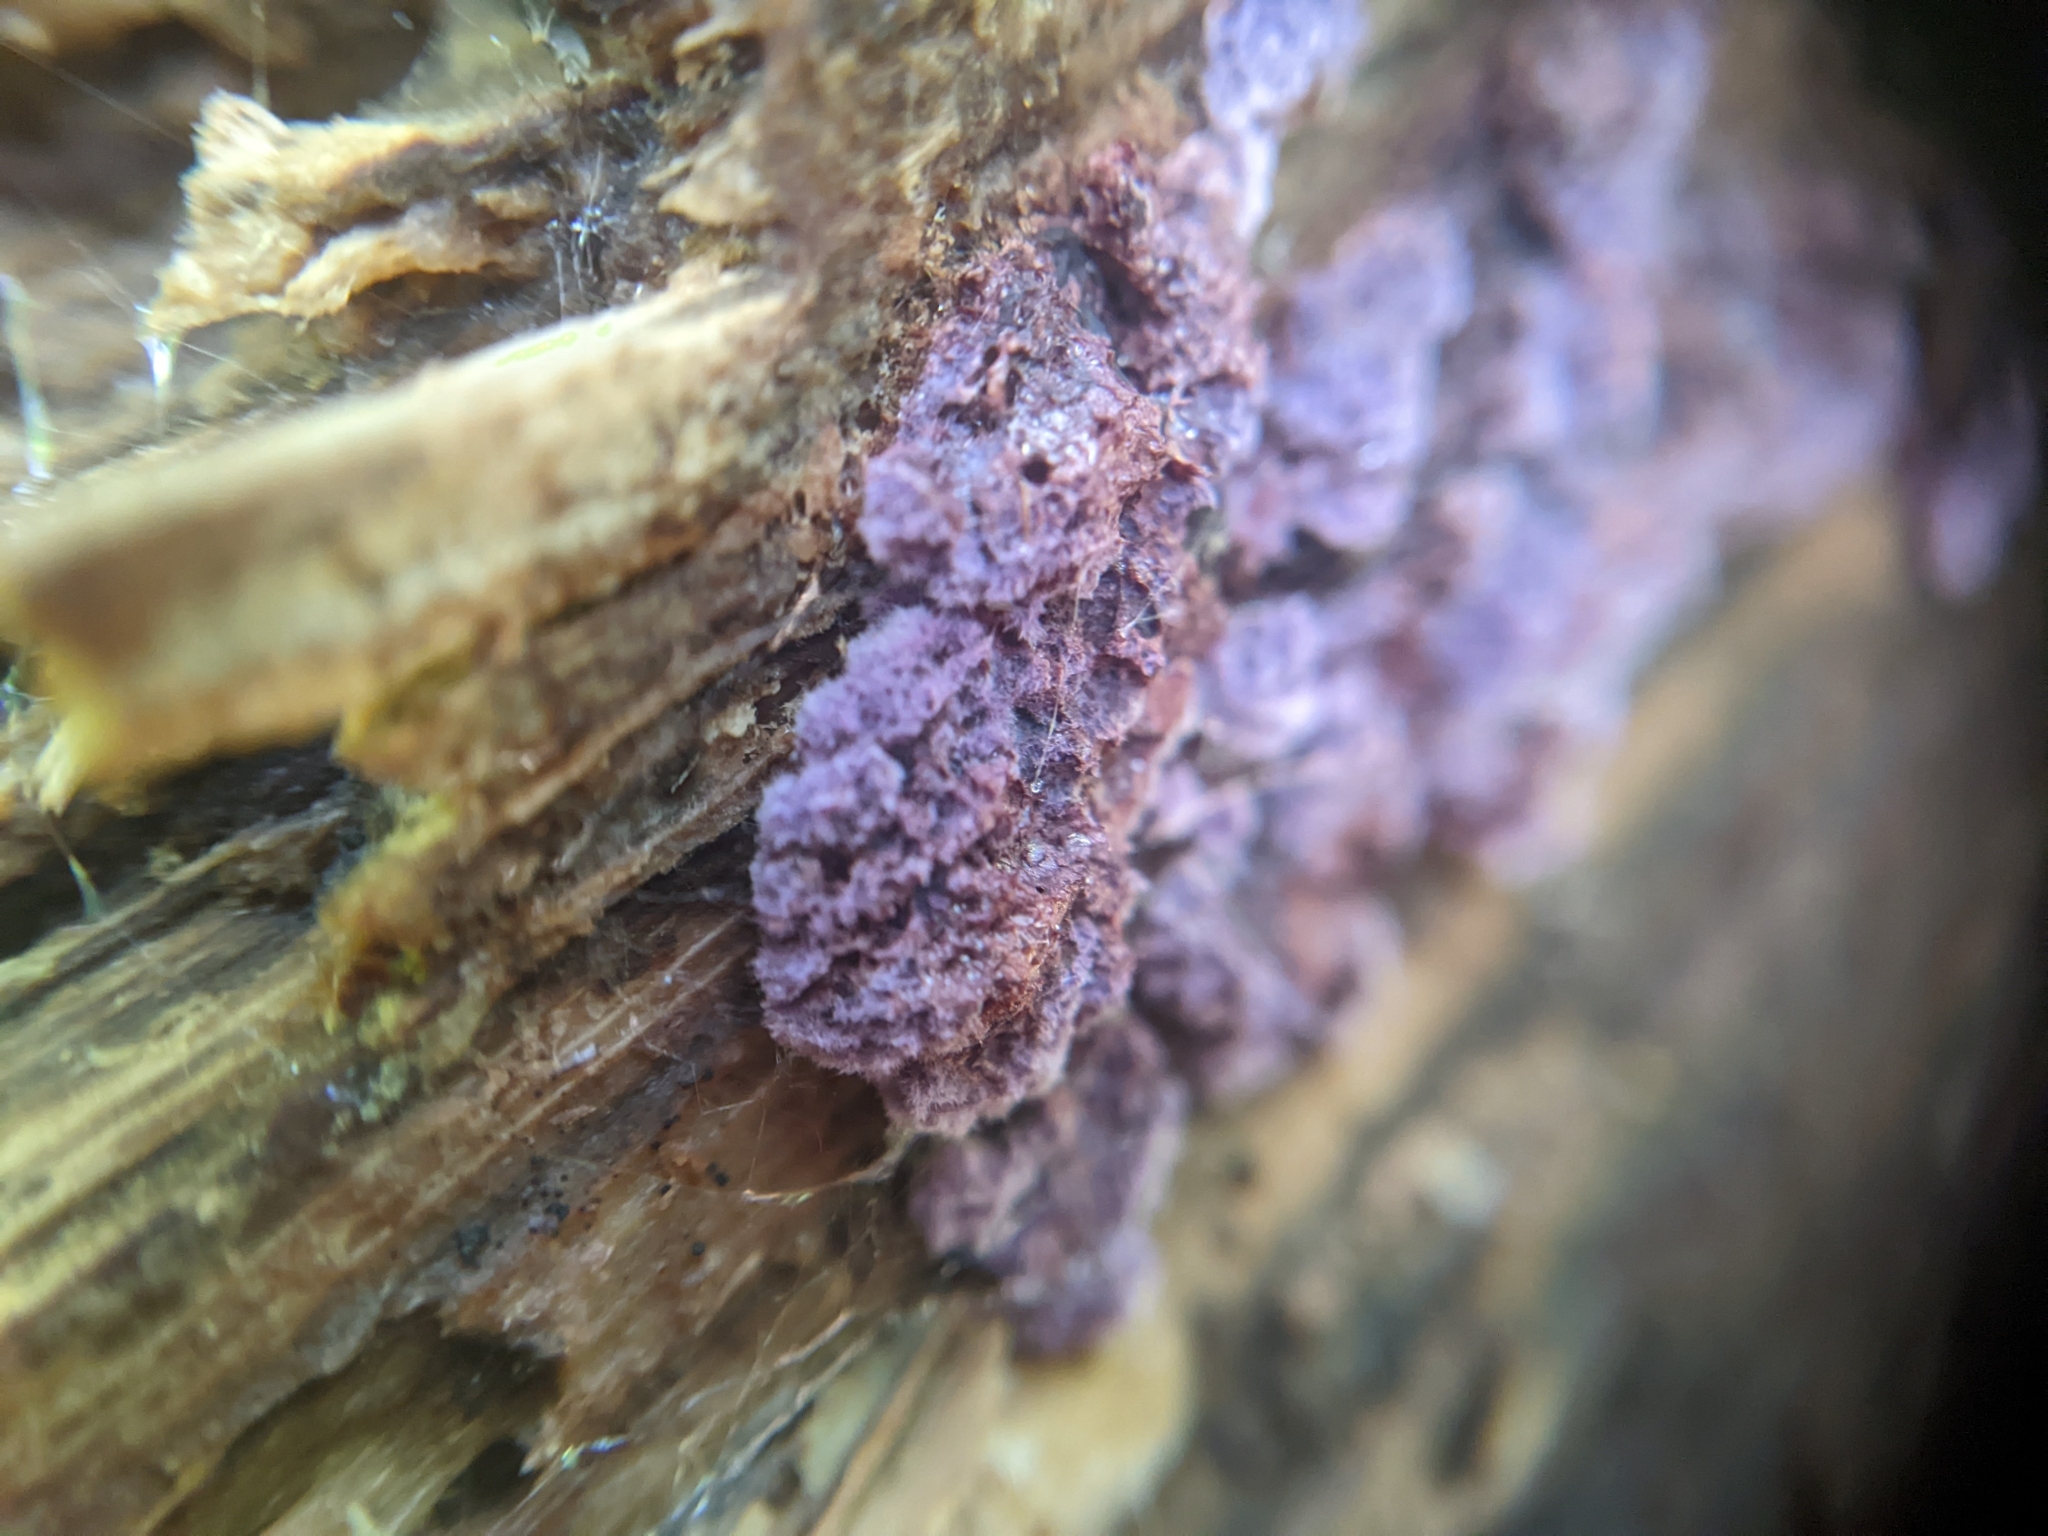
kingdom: Fungi
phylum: Basidiomycota
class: Agaricomycetes
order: Corticiales
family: Punctulariaceae
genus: Punctularia
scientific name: Punctularia atropurpurascens
